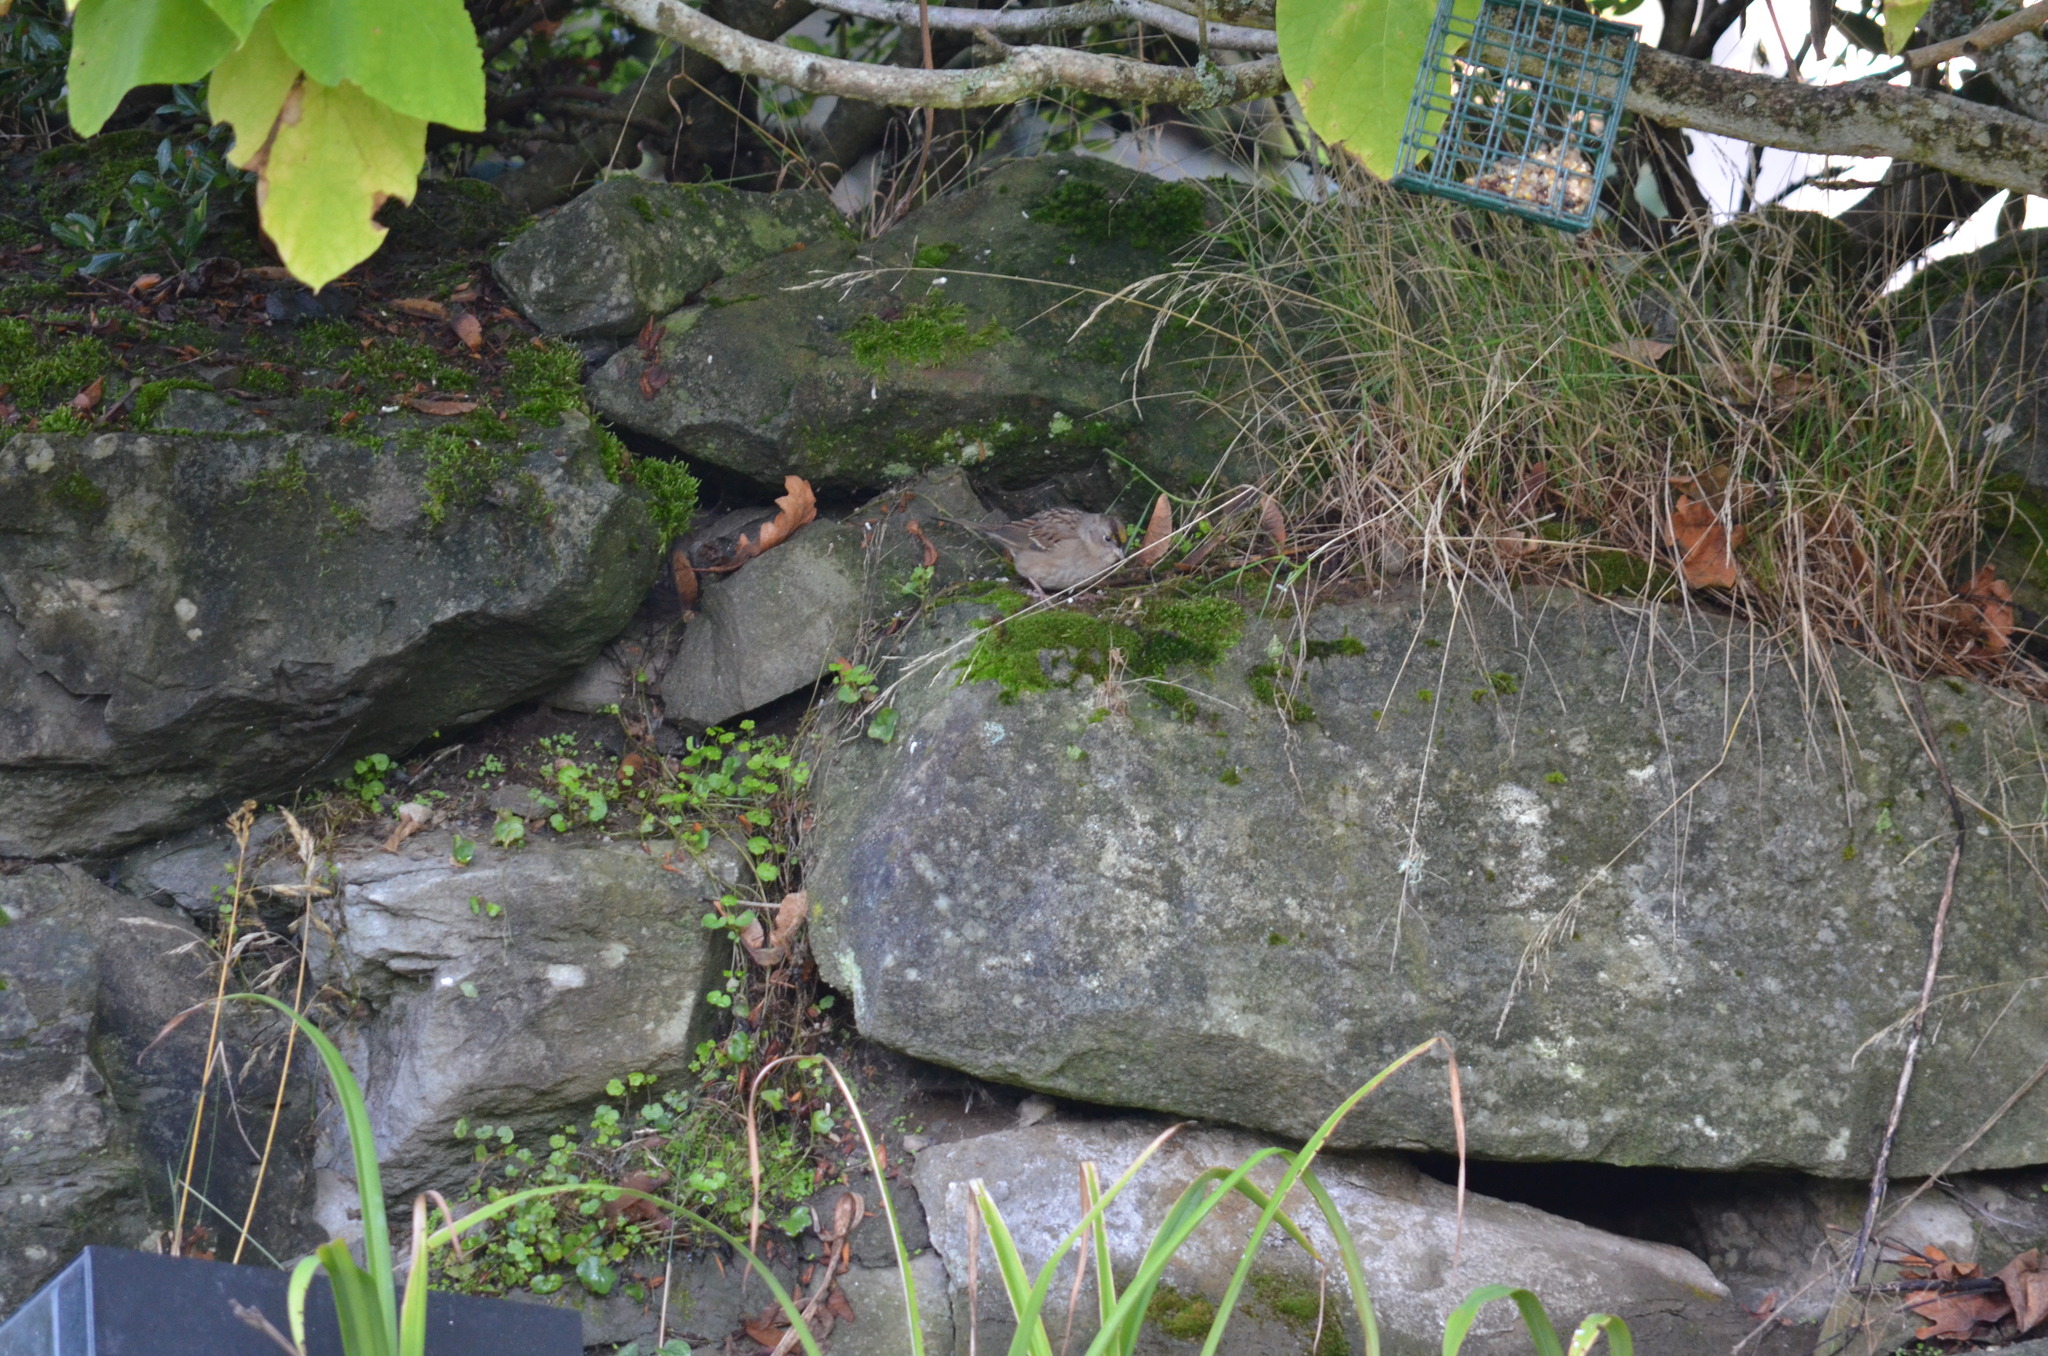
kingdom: Animalia
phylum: Chordata
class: Aves
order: Passeriformes
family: Passerellidae
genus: Zonotrichia
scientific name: Zonotrichia atricapilla
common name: Golden-crowned sparrow
